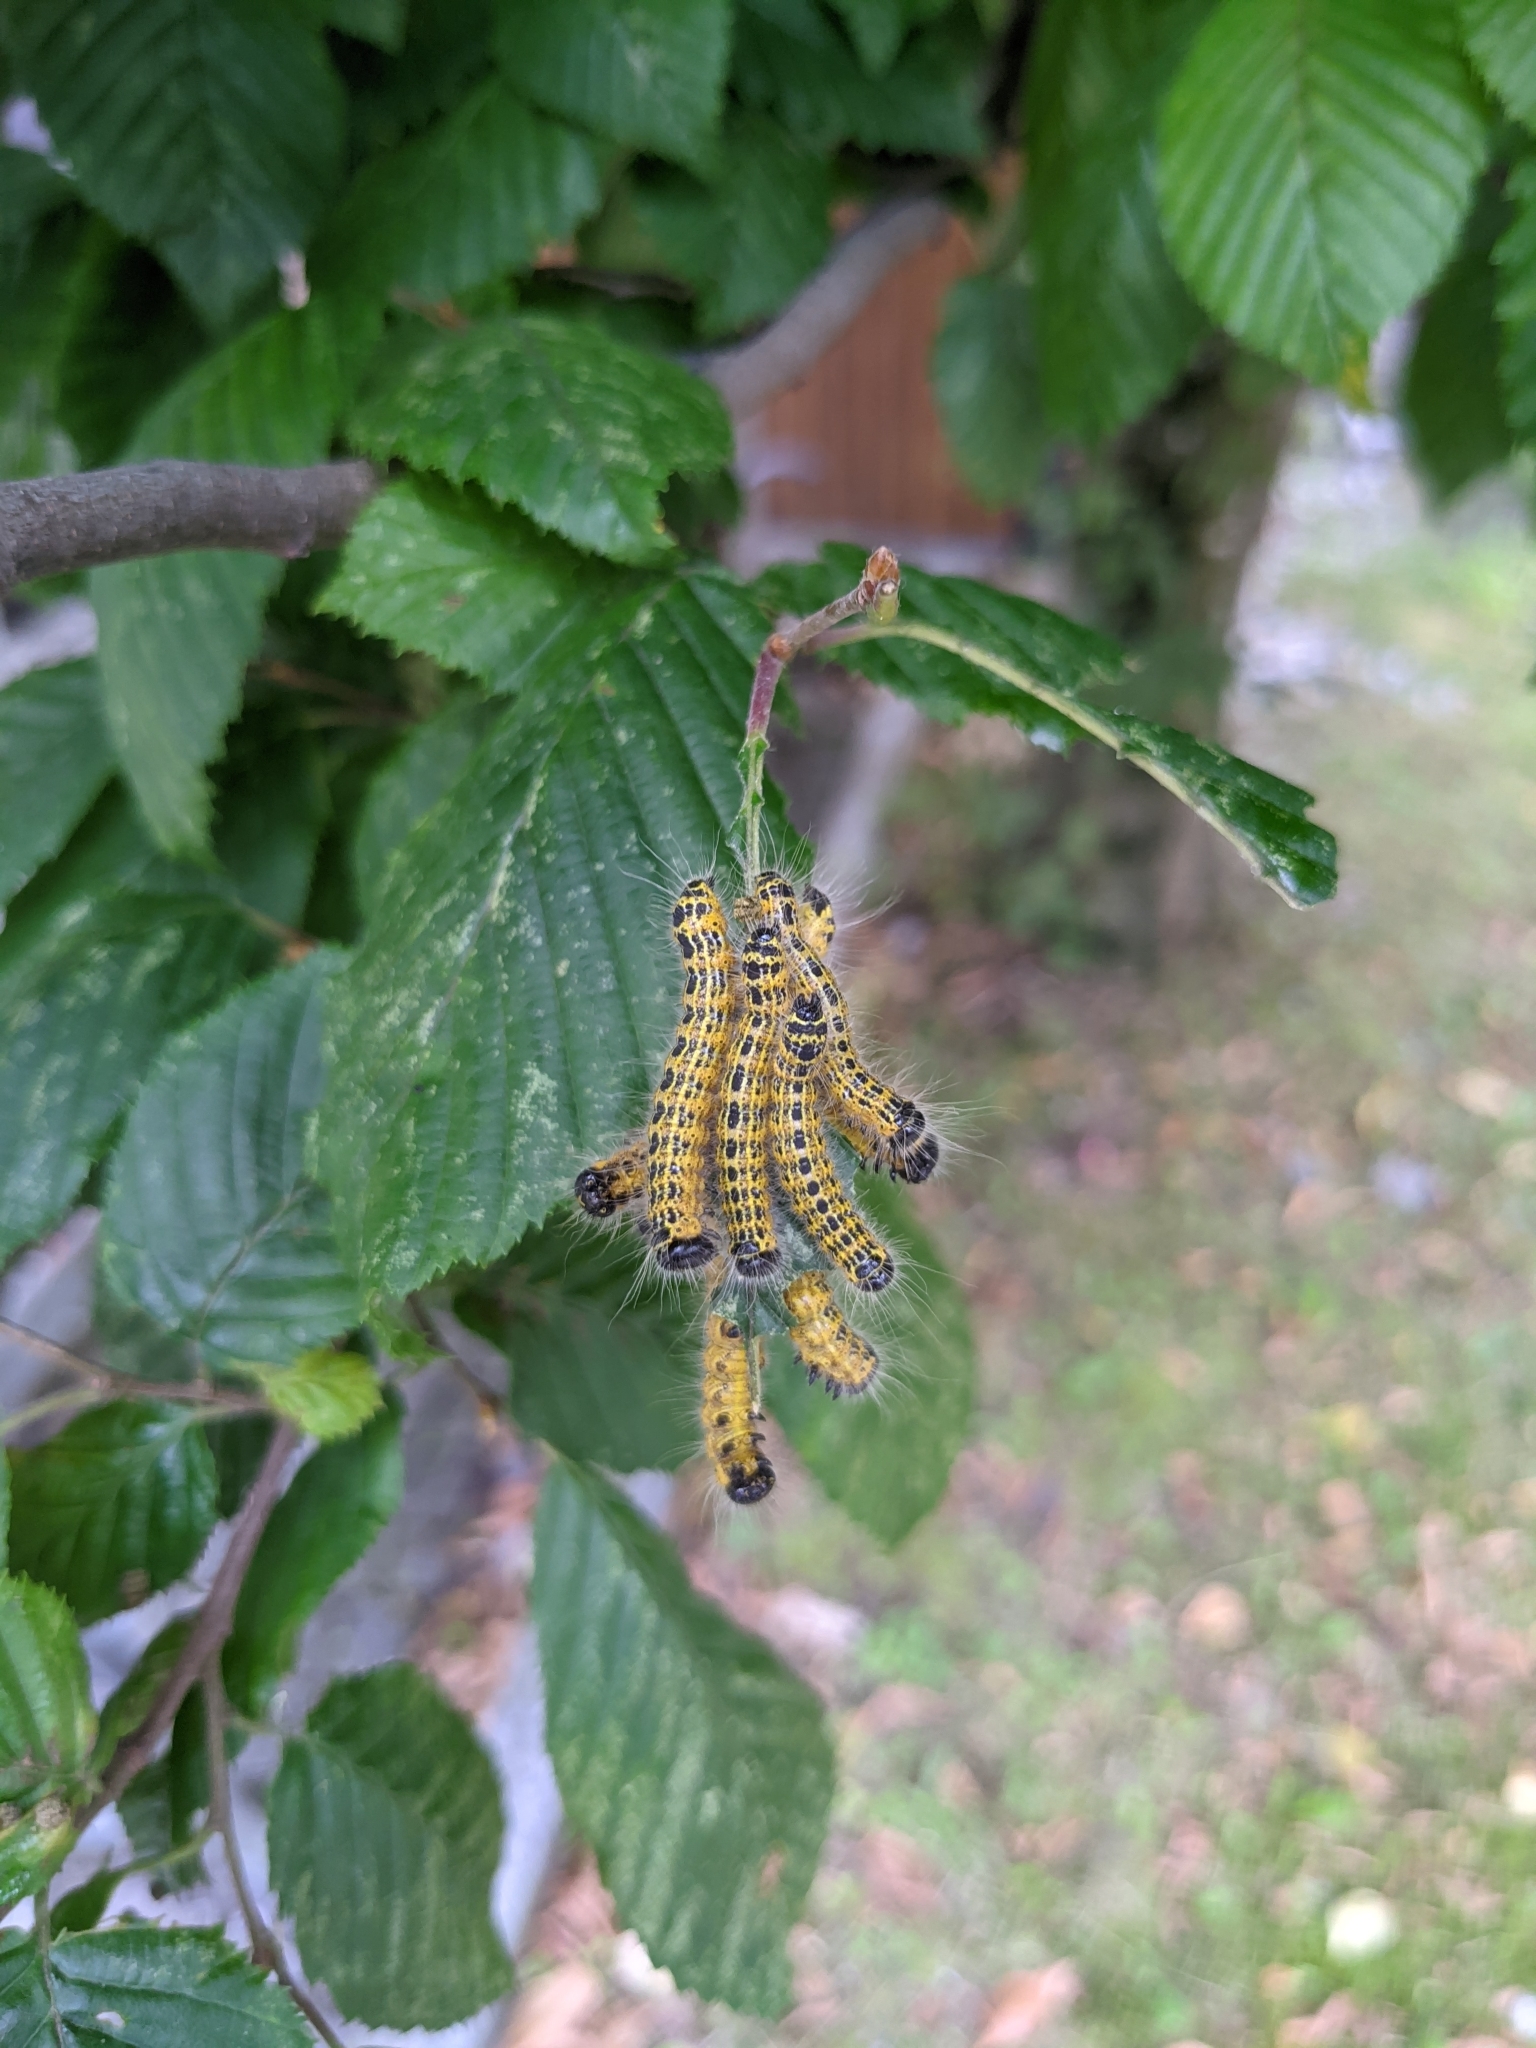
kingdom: Animalia
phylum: Arthropoda
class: Insecta
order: Lepidoptera
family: Notodontidae
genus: Phalera
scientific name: Phalera bucephala
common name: Buff-tip
